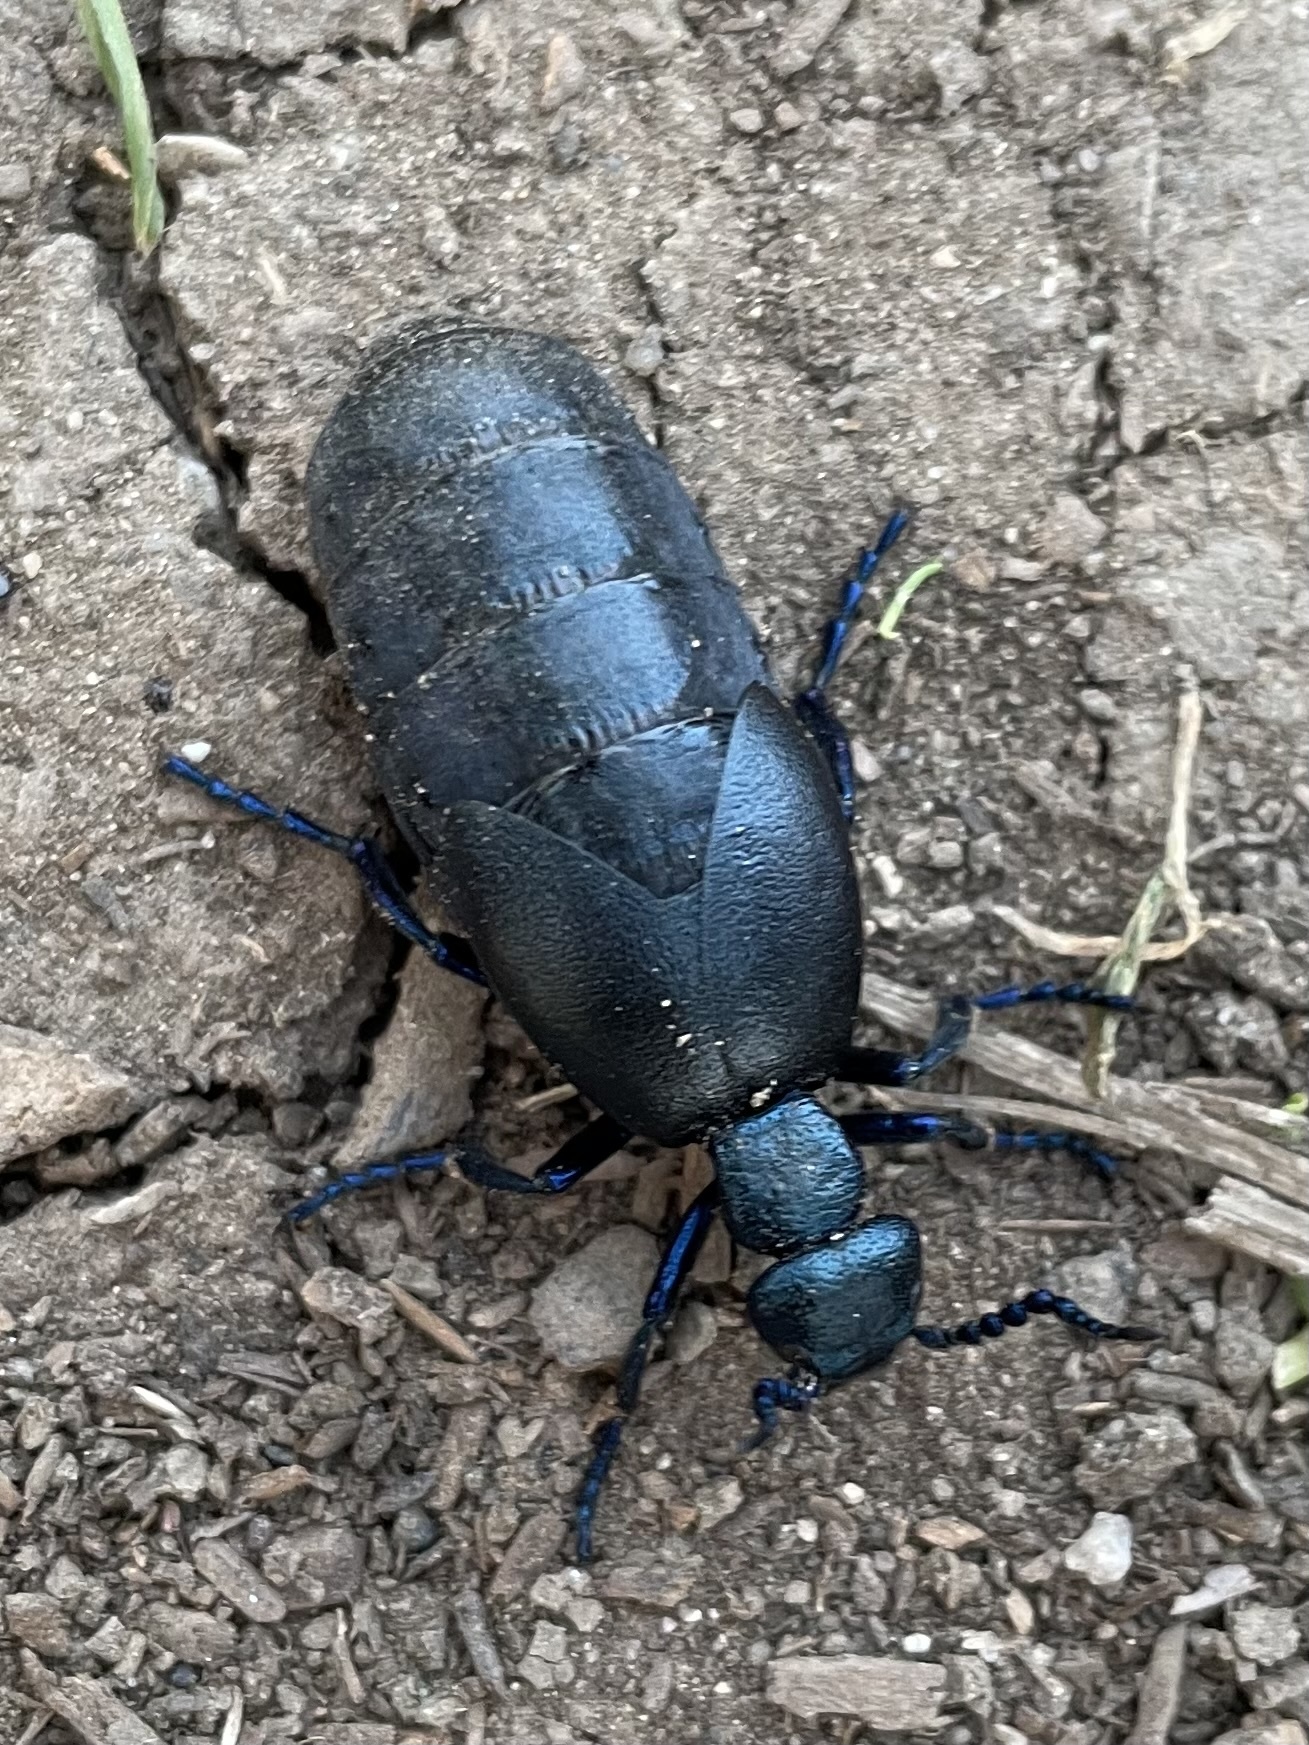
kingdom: Animalia
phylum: Arthropoda
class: Insecta
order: Coleoptera
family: Meloidae
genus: Meloe
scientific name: Meloe proscarabaeus
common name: Black oil-beetle
